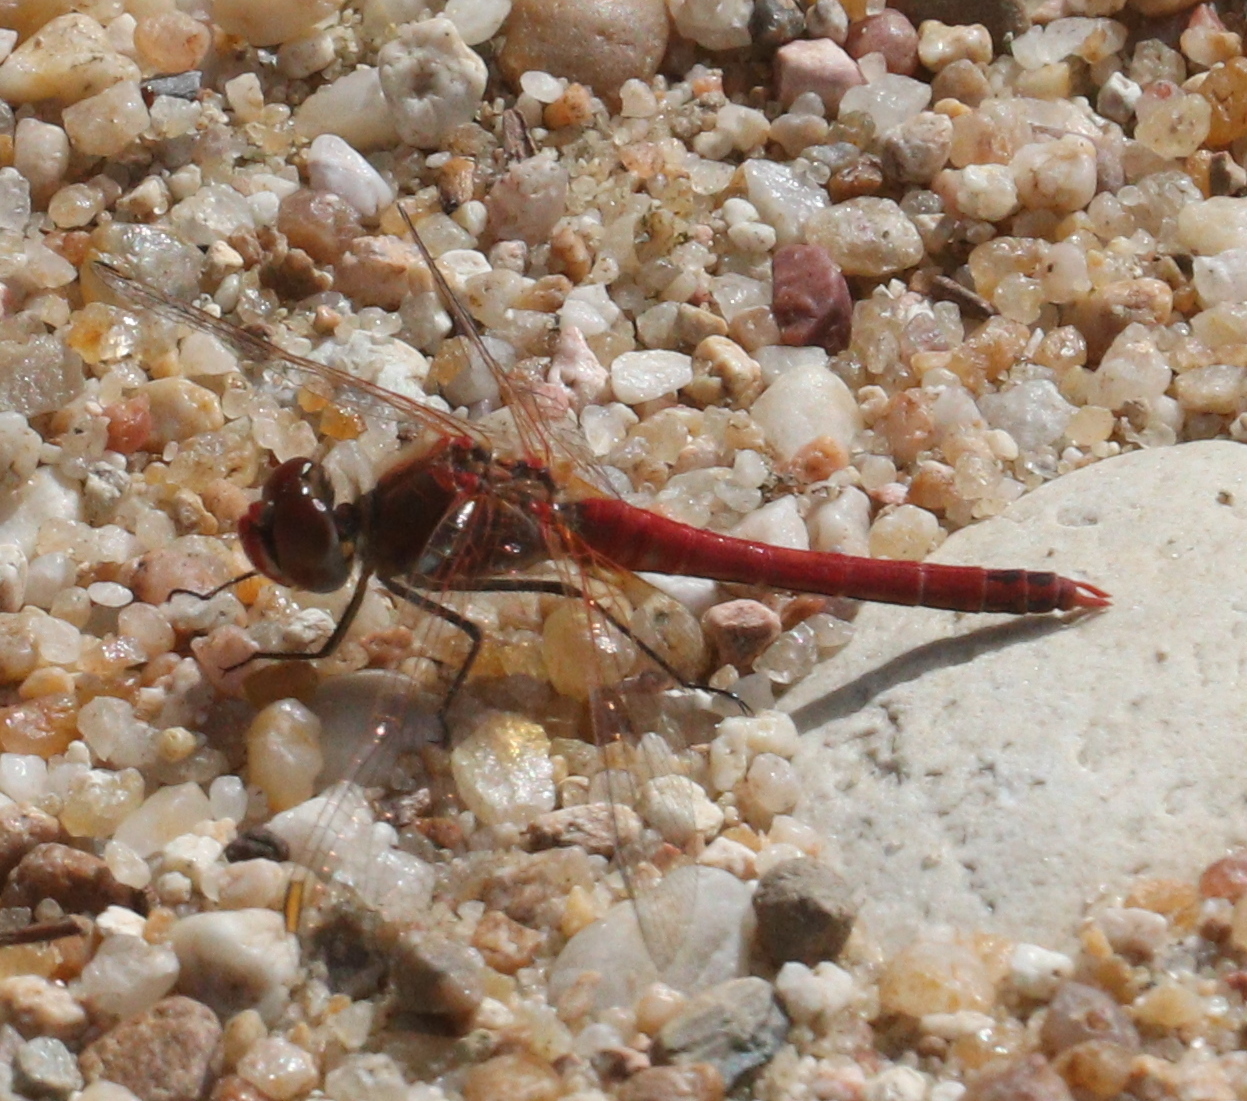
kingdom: Animalia
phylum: Arthropoda
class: Insecta
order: Odonata
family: Libellulidae
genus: Sympetrum
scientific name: Sympetrum fonscolombii
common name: Red-veined darter
